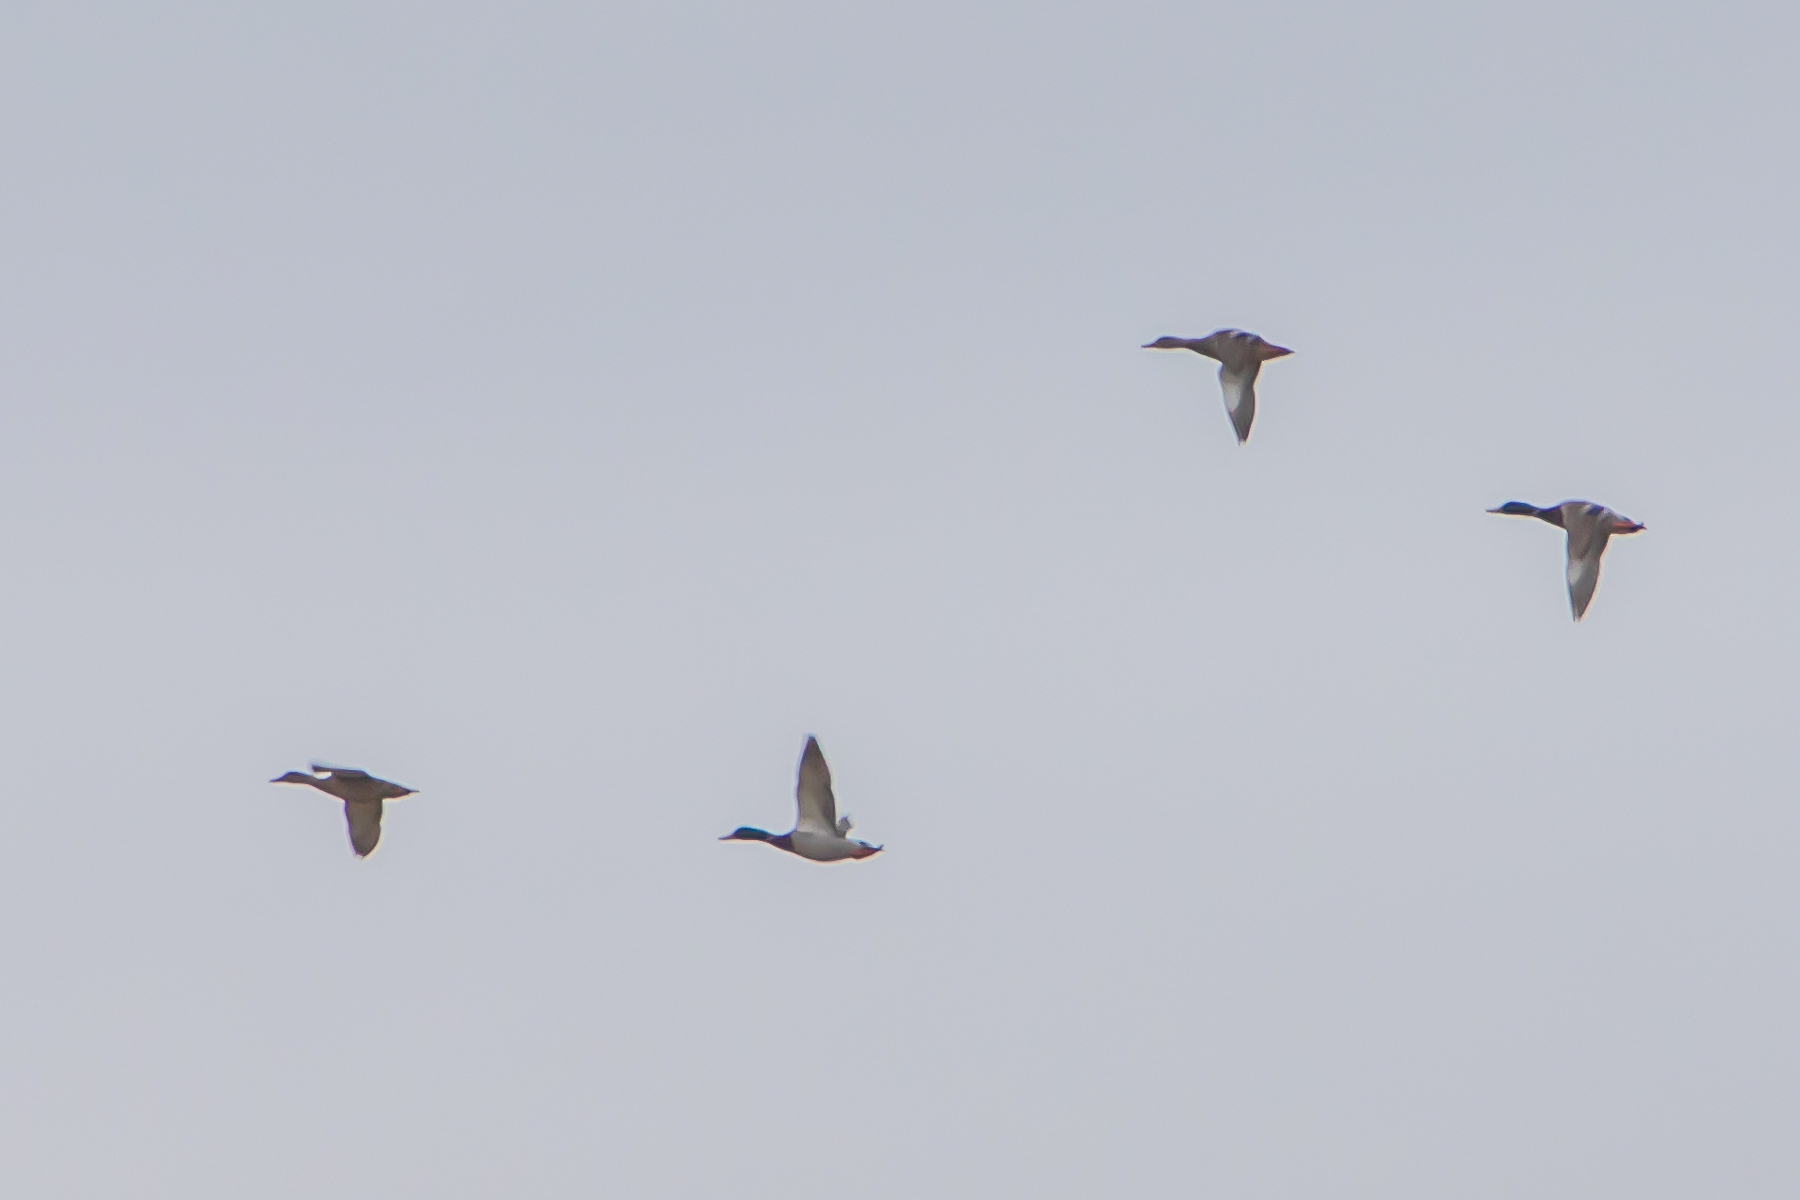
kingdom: Animalia
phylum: Chordata
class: Aves
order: Anseriformes
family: Anatidae
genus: Anas
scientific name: Anas platyrhynchos
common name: Mallard
